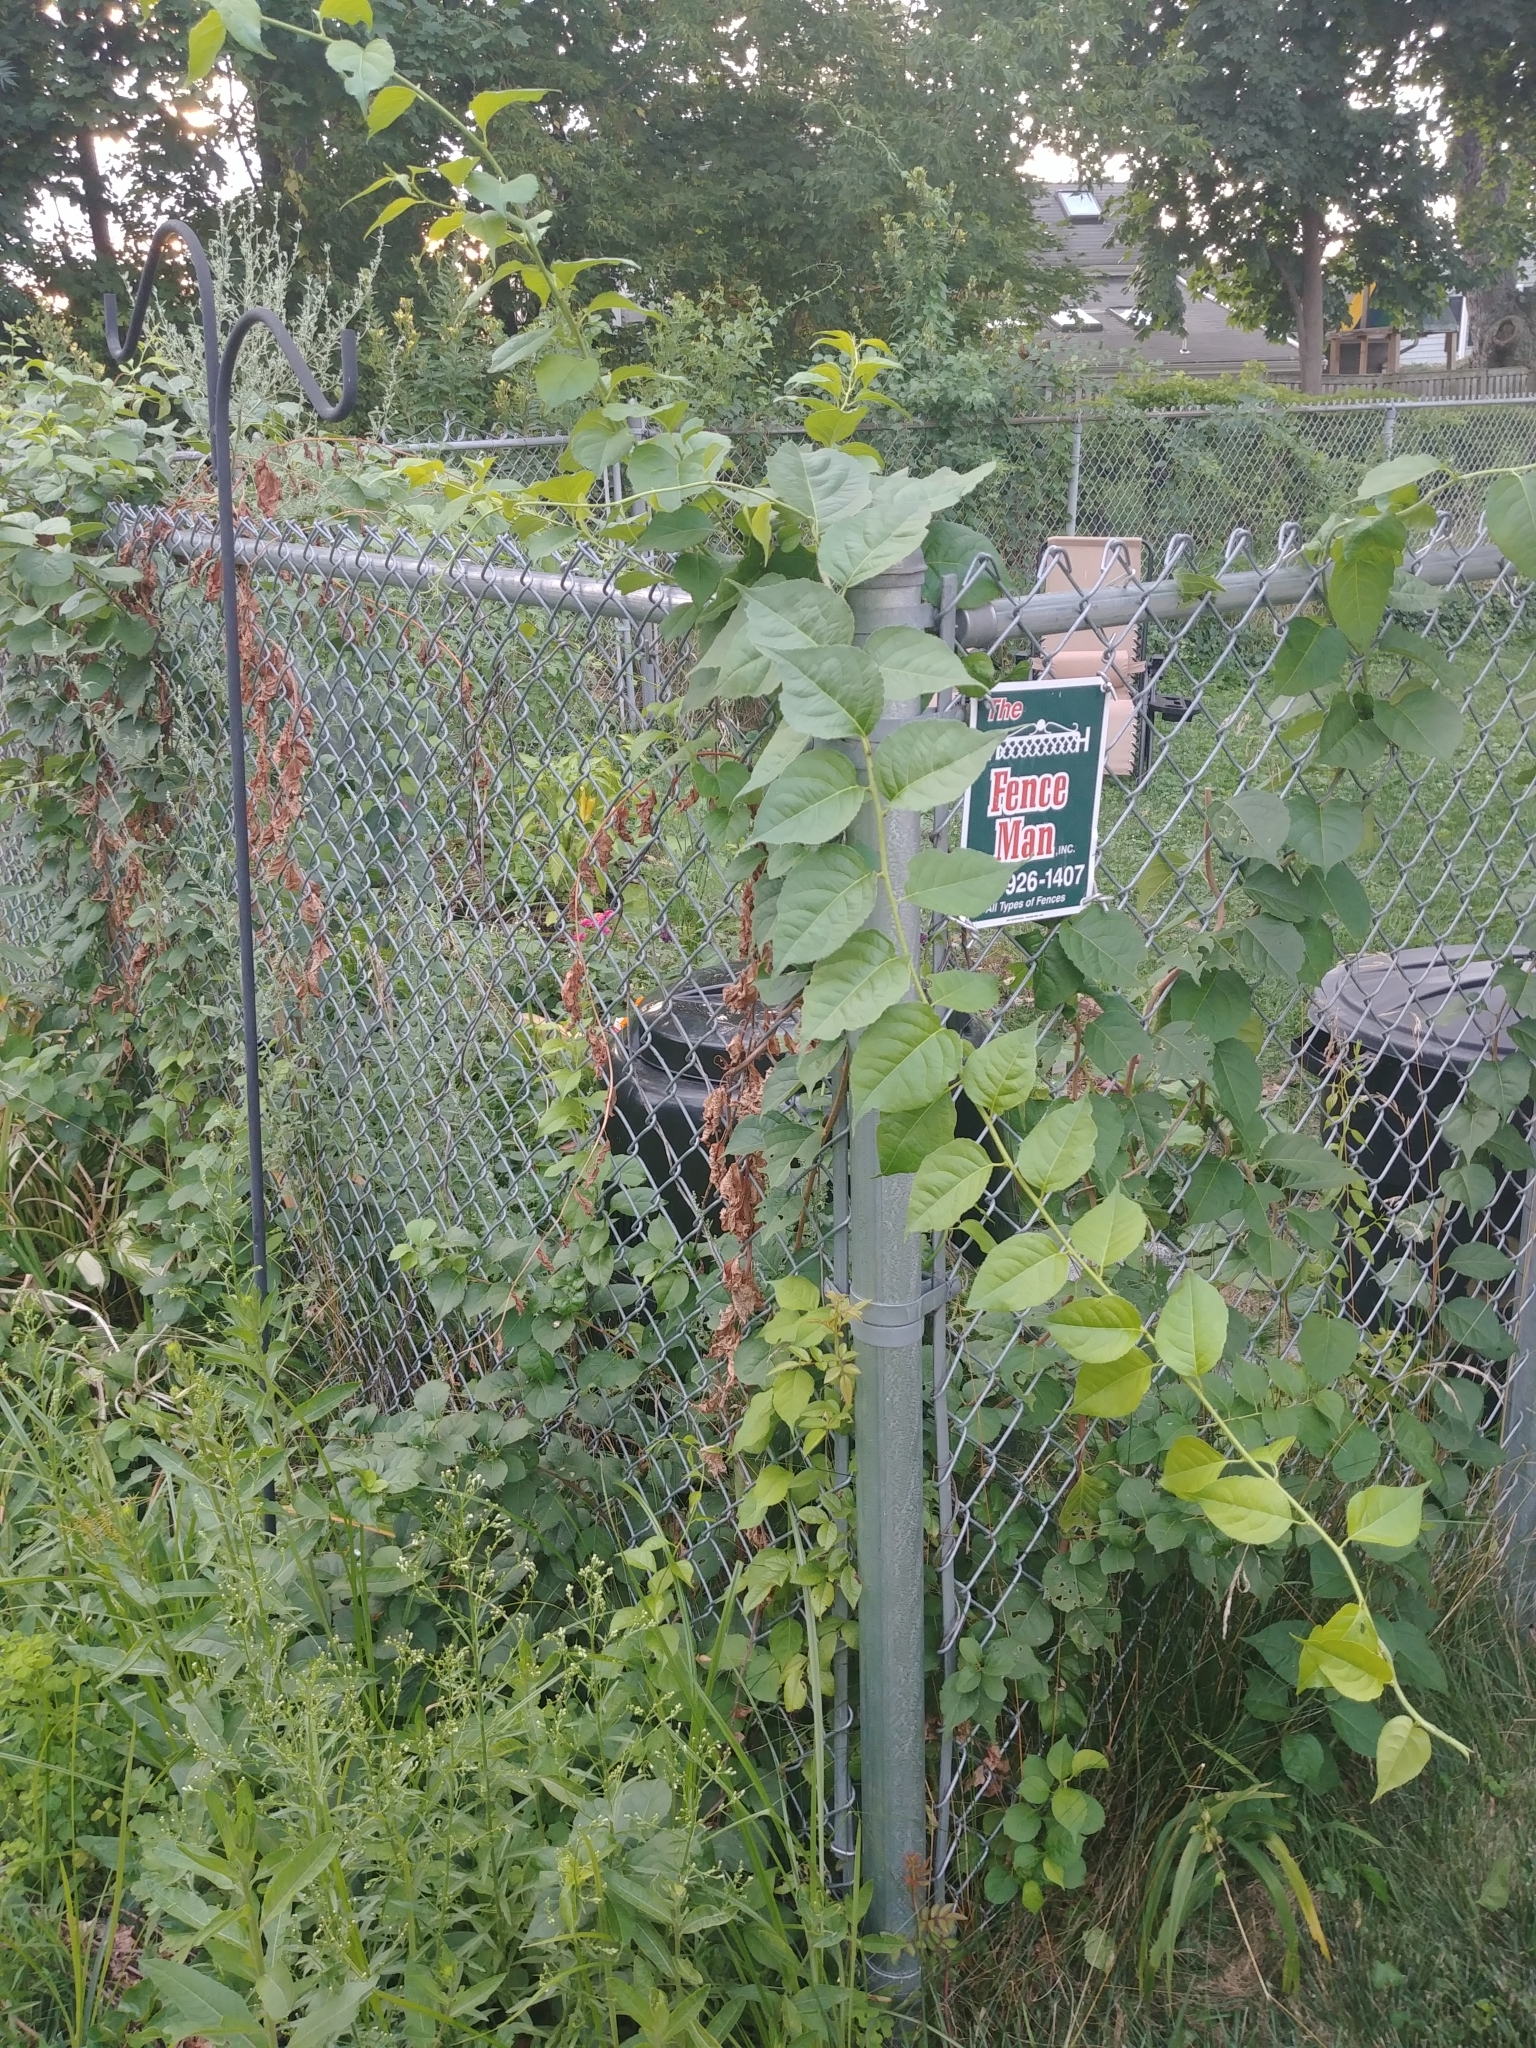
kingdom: Plantae
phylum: Tracheophyta
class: Magnoliopsida
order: Celastrales
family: Celastraceae
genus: Celastrus
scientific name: Celastrus orbiculatus
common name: Oriental bittersweet
